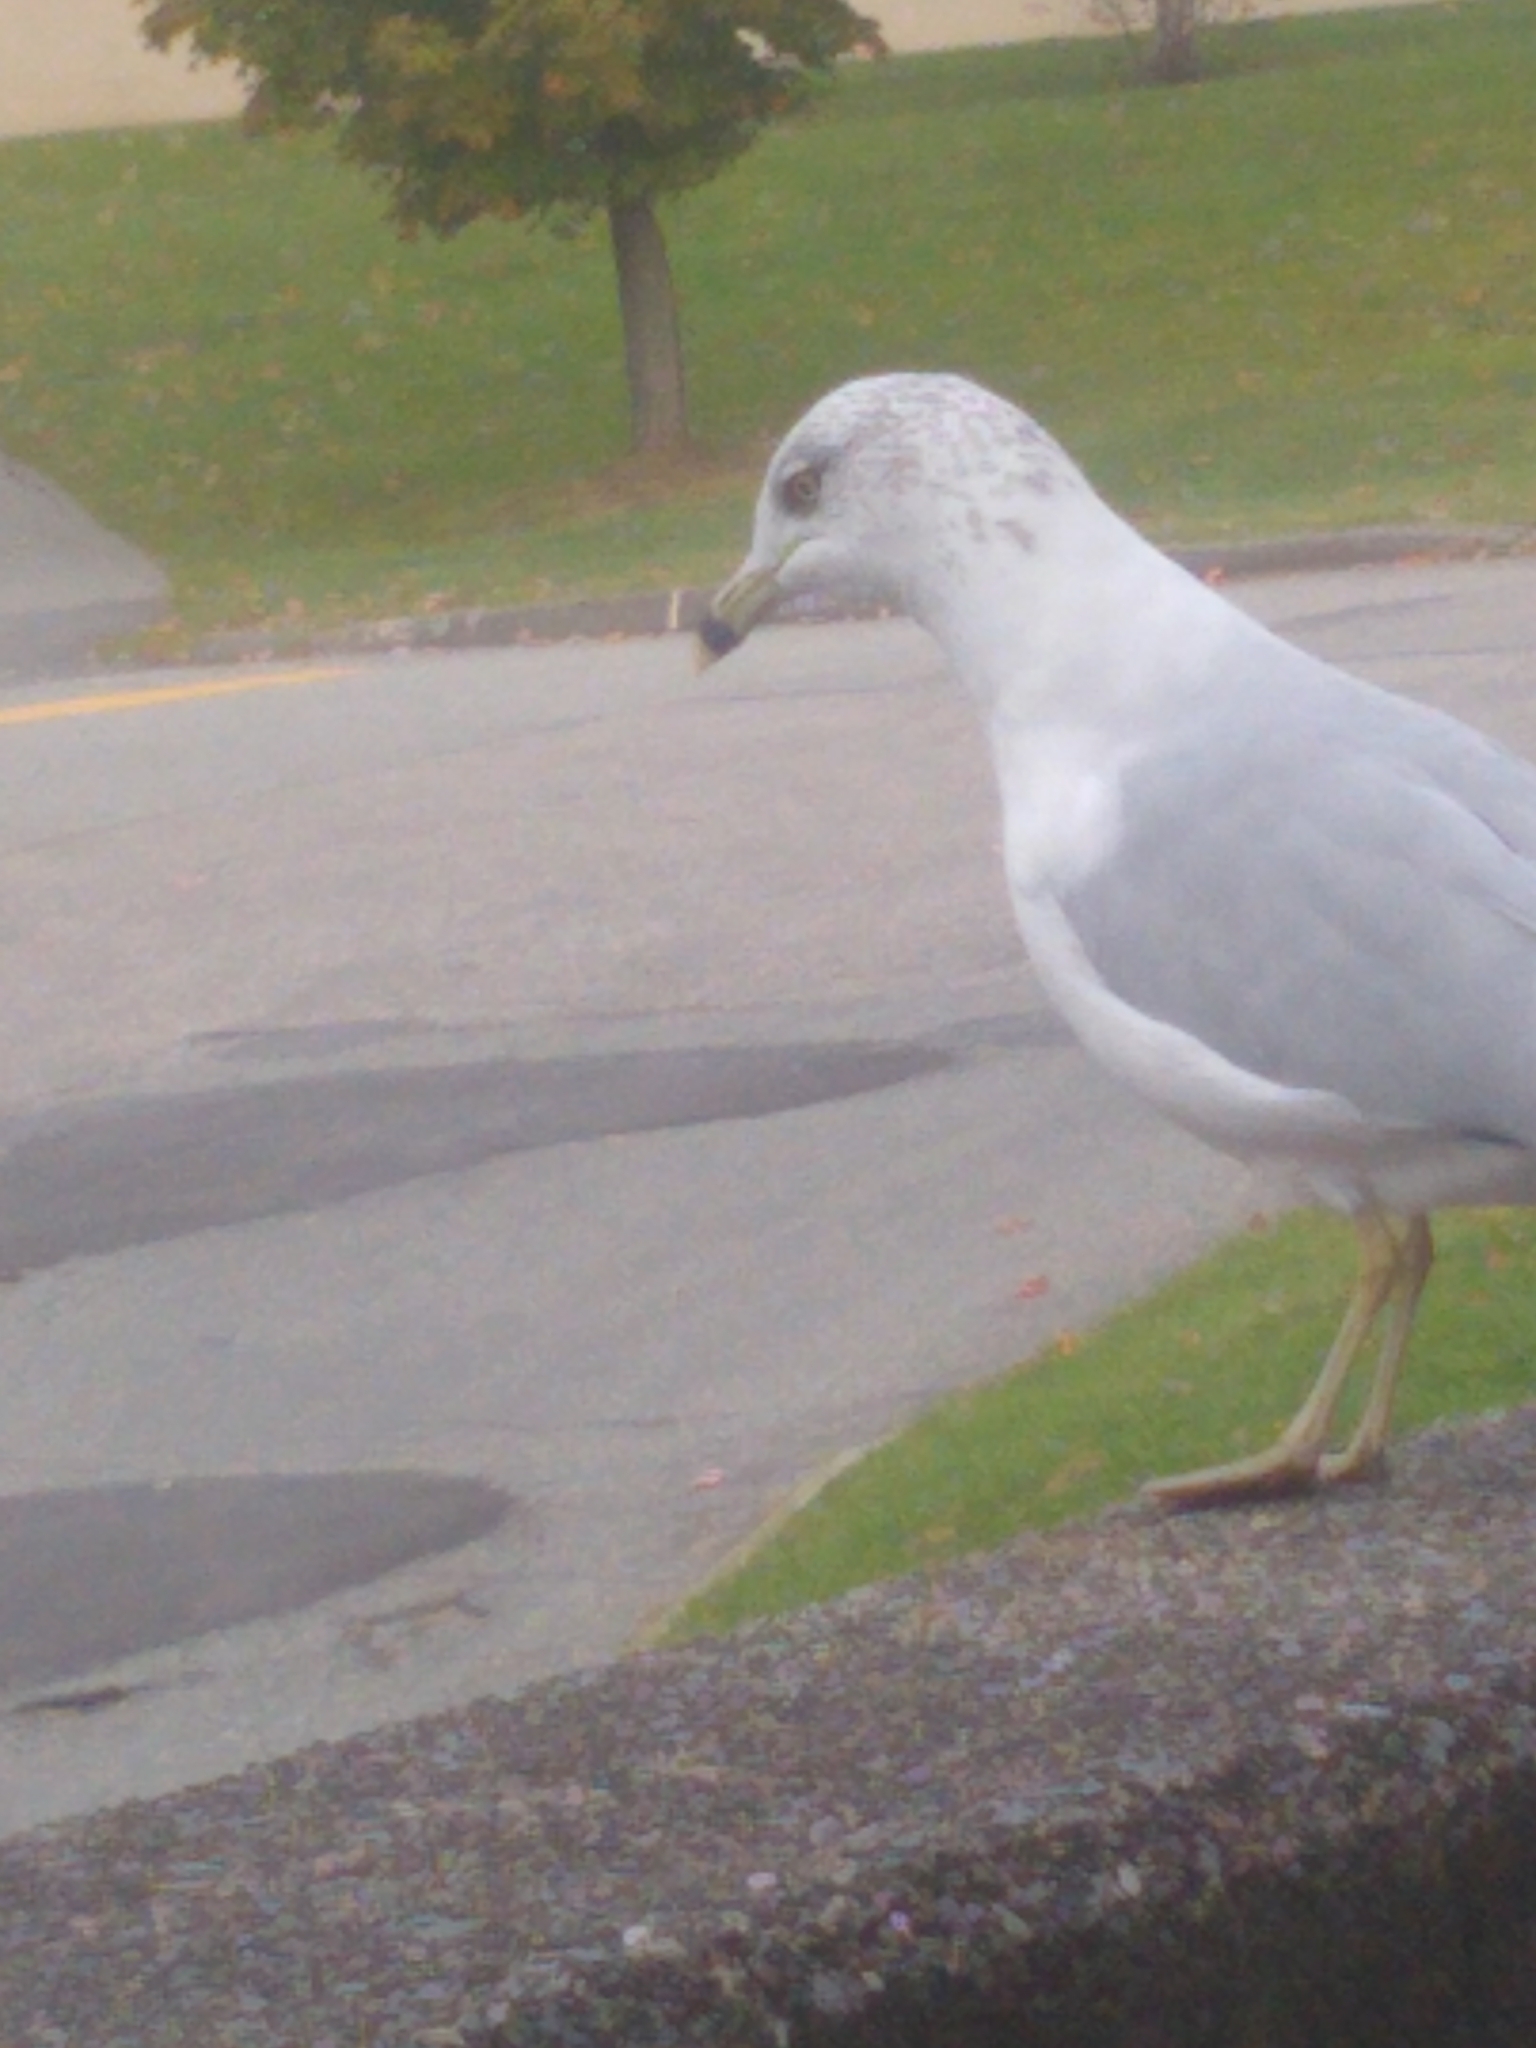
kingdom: Animalia
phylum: Chordata
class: Aves
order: Charadriiformes
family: Laridae
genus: Larus
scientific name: Larus delawarensis
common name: Ring-billed gull
